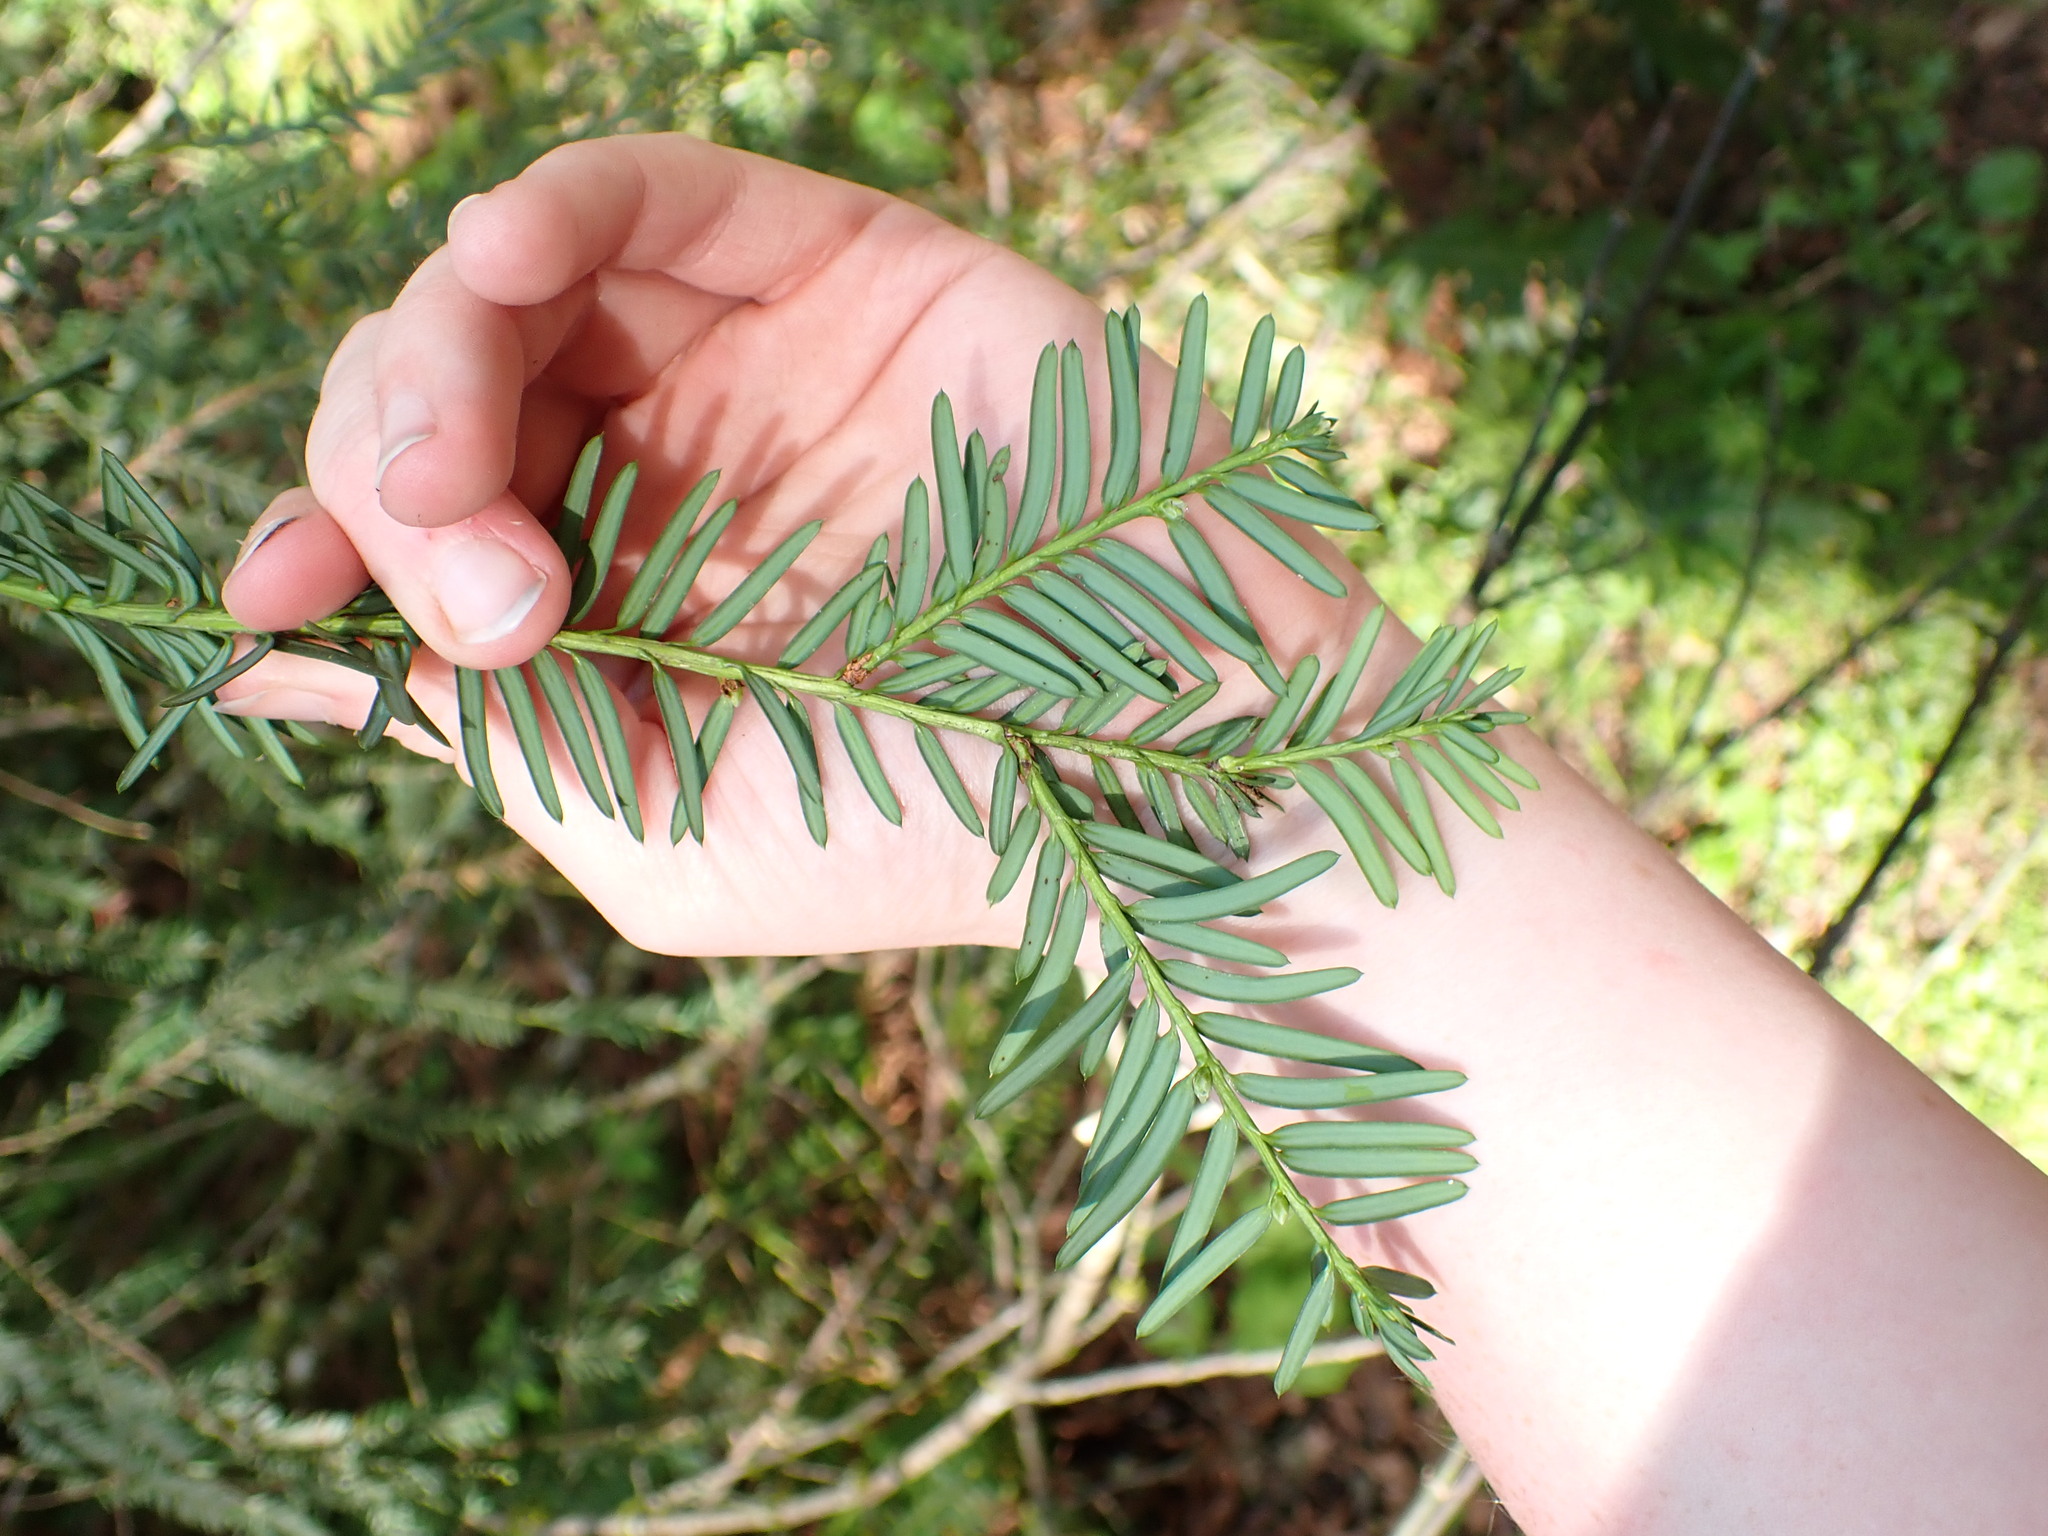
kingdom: Plantae
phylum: Tracheophyta
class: Pinopsida
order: Pinales
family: Taxaceae
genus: Taxus
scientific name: Taxus brevifolia
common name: Pacific yew
